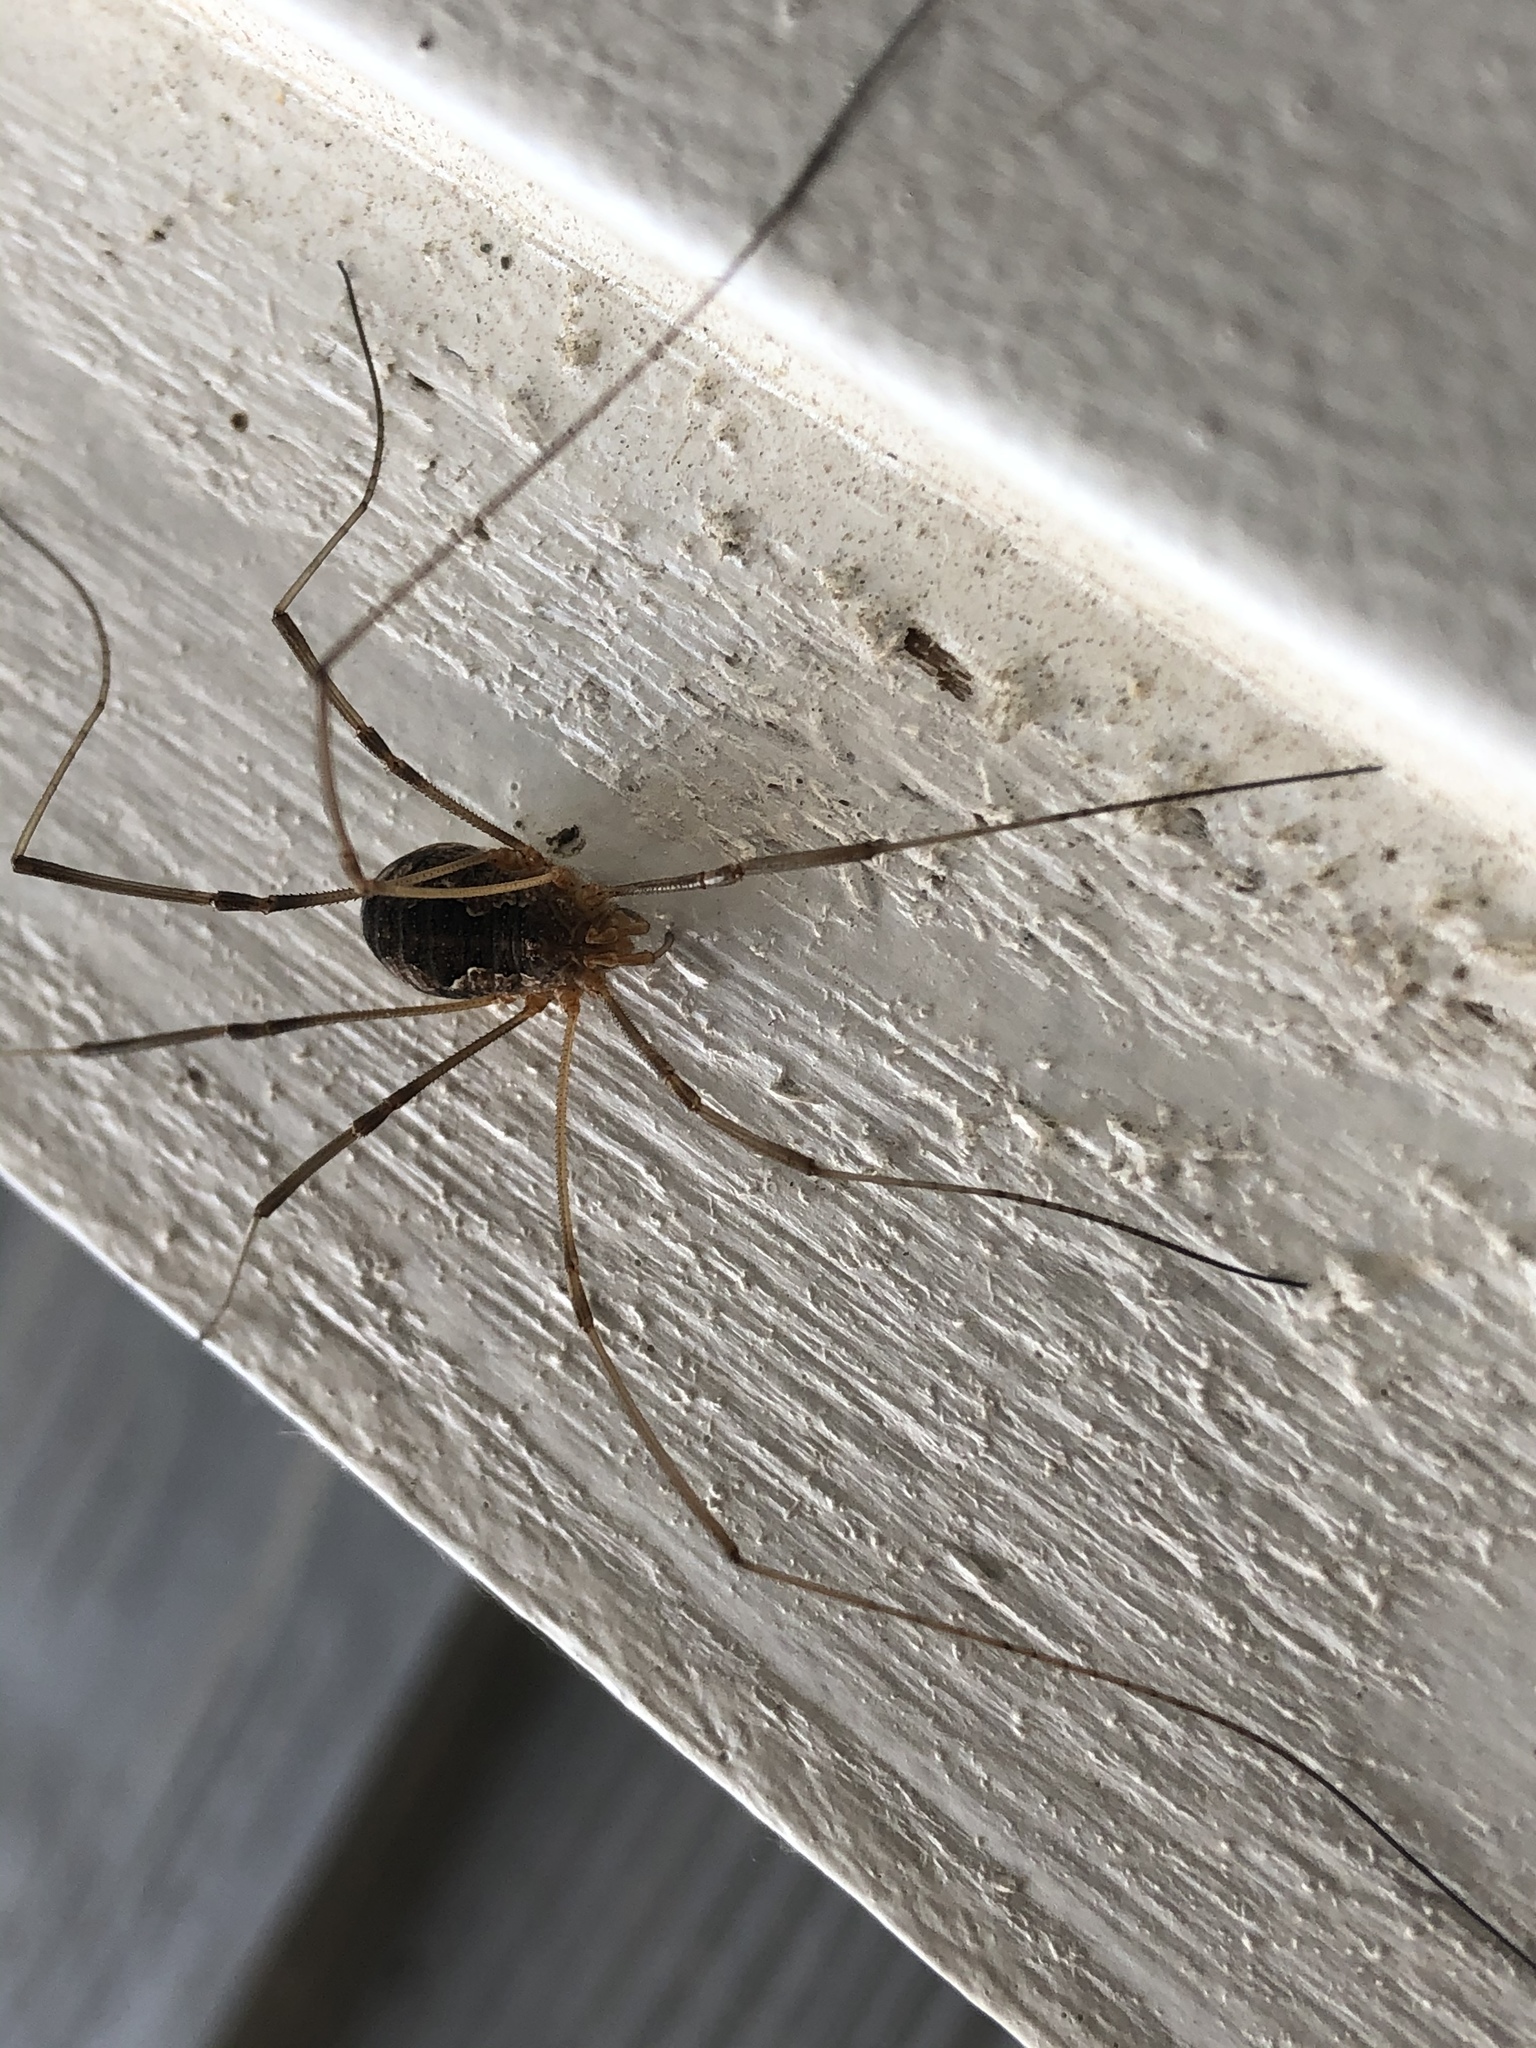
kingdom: Animalia
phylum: Arthropoda
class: Arachnida
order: Opiliones
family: Phalangiidae
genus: Phalangium
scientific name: Phalangium opilio
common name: Daddy longleg
